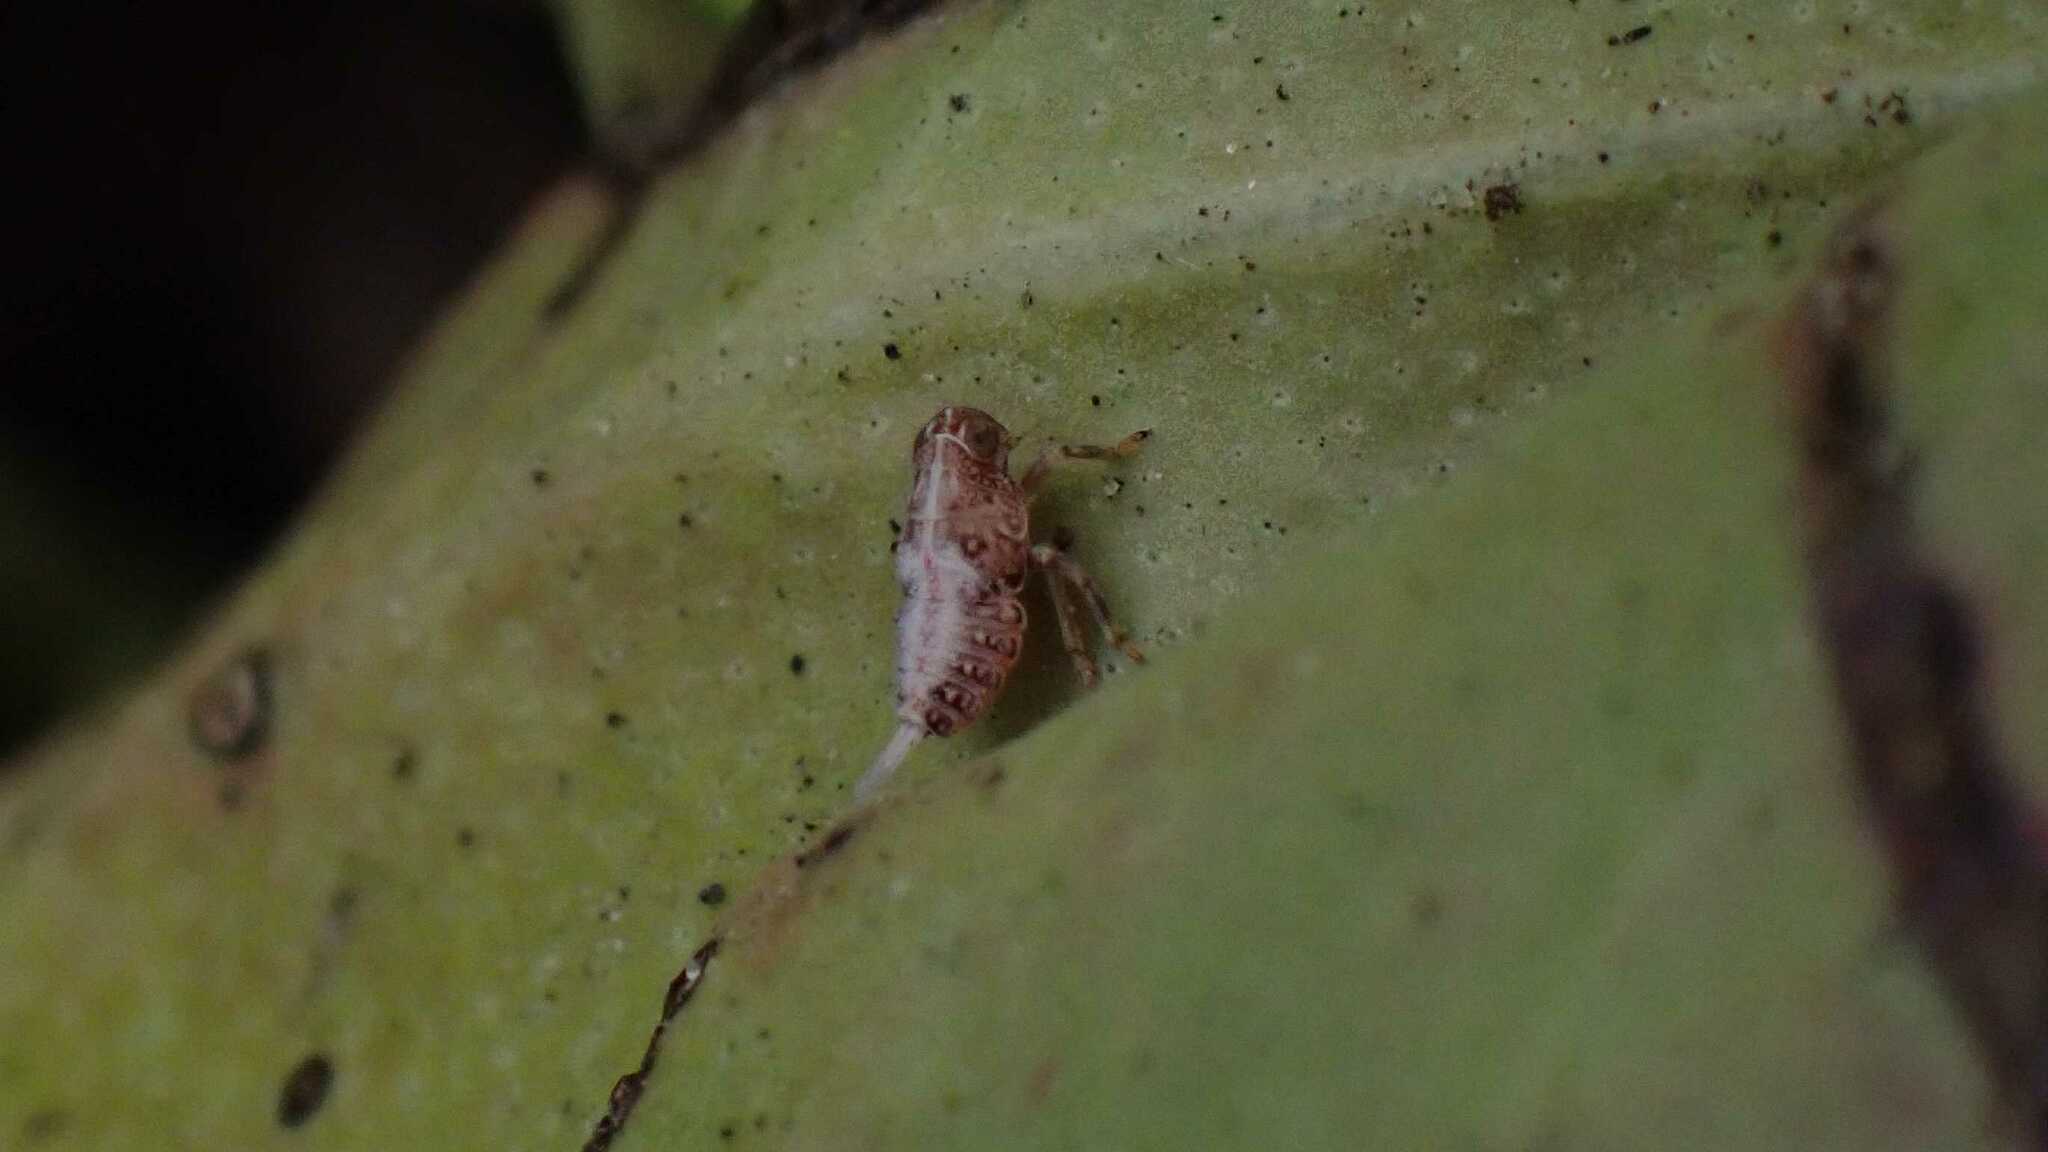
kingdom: Animalia
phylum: Arthropoda
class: Insecta
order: Hemiptera
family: Issidae
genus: Issus
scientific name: Issus
